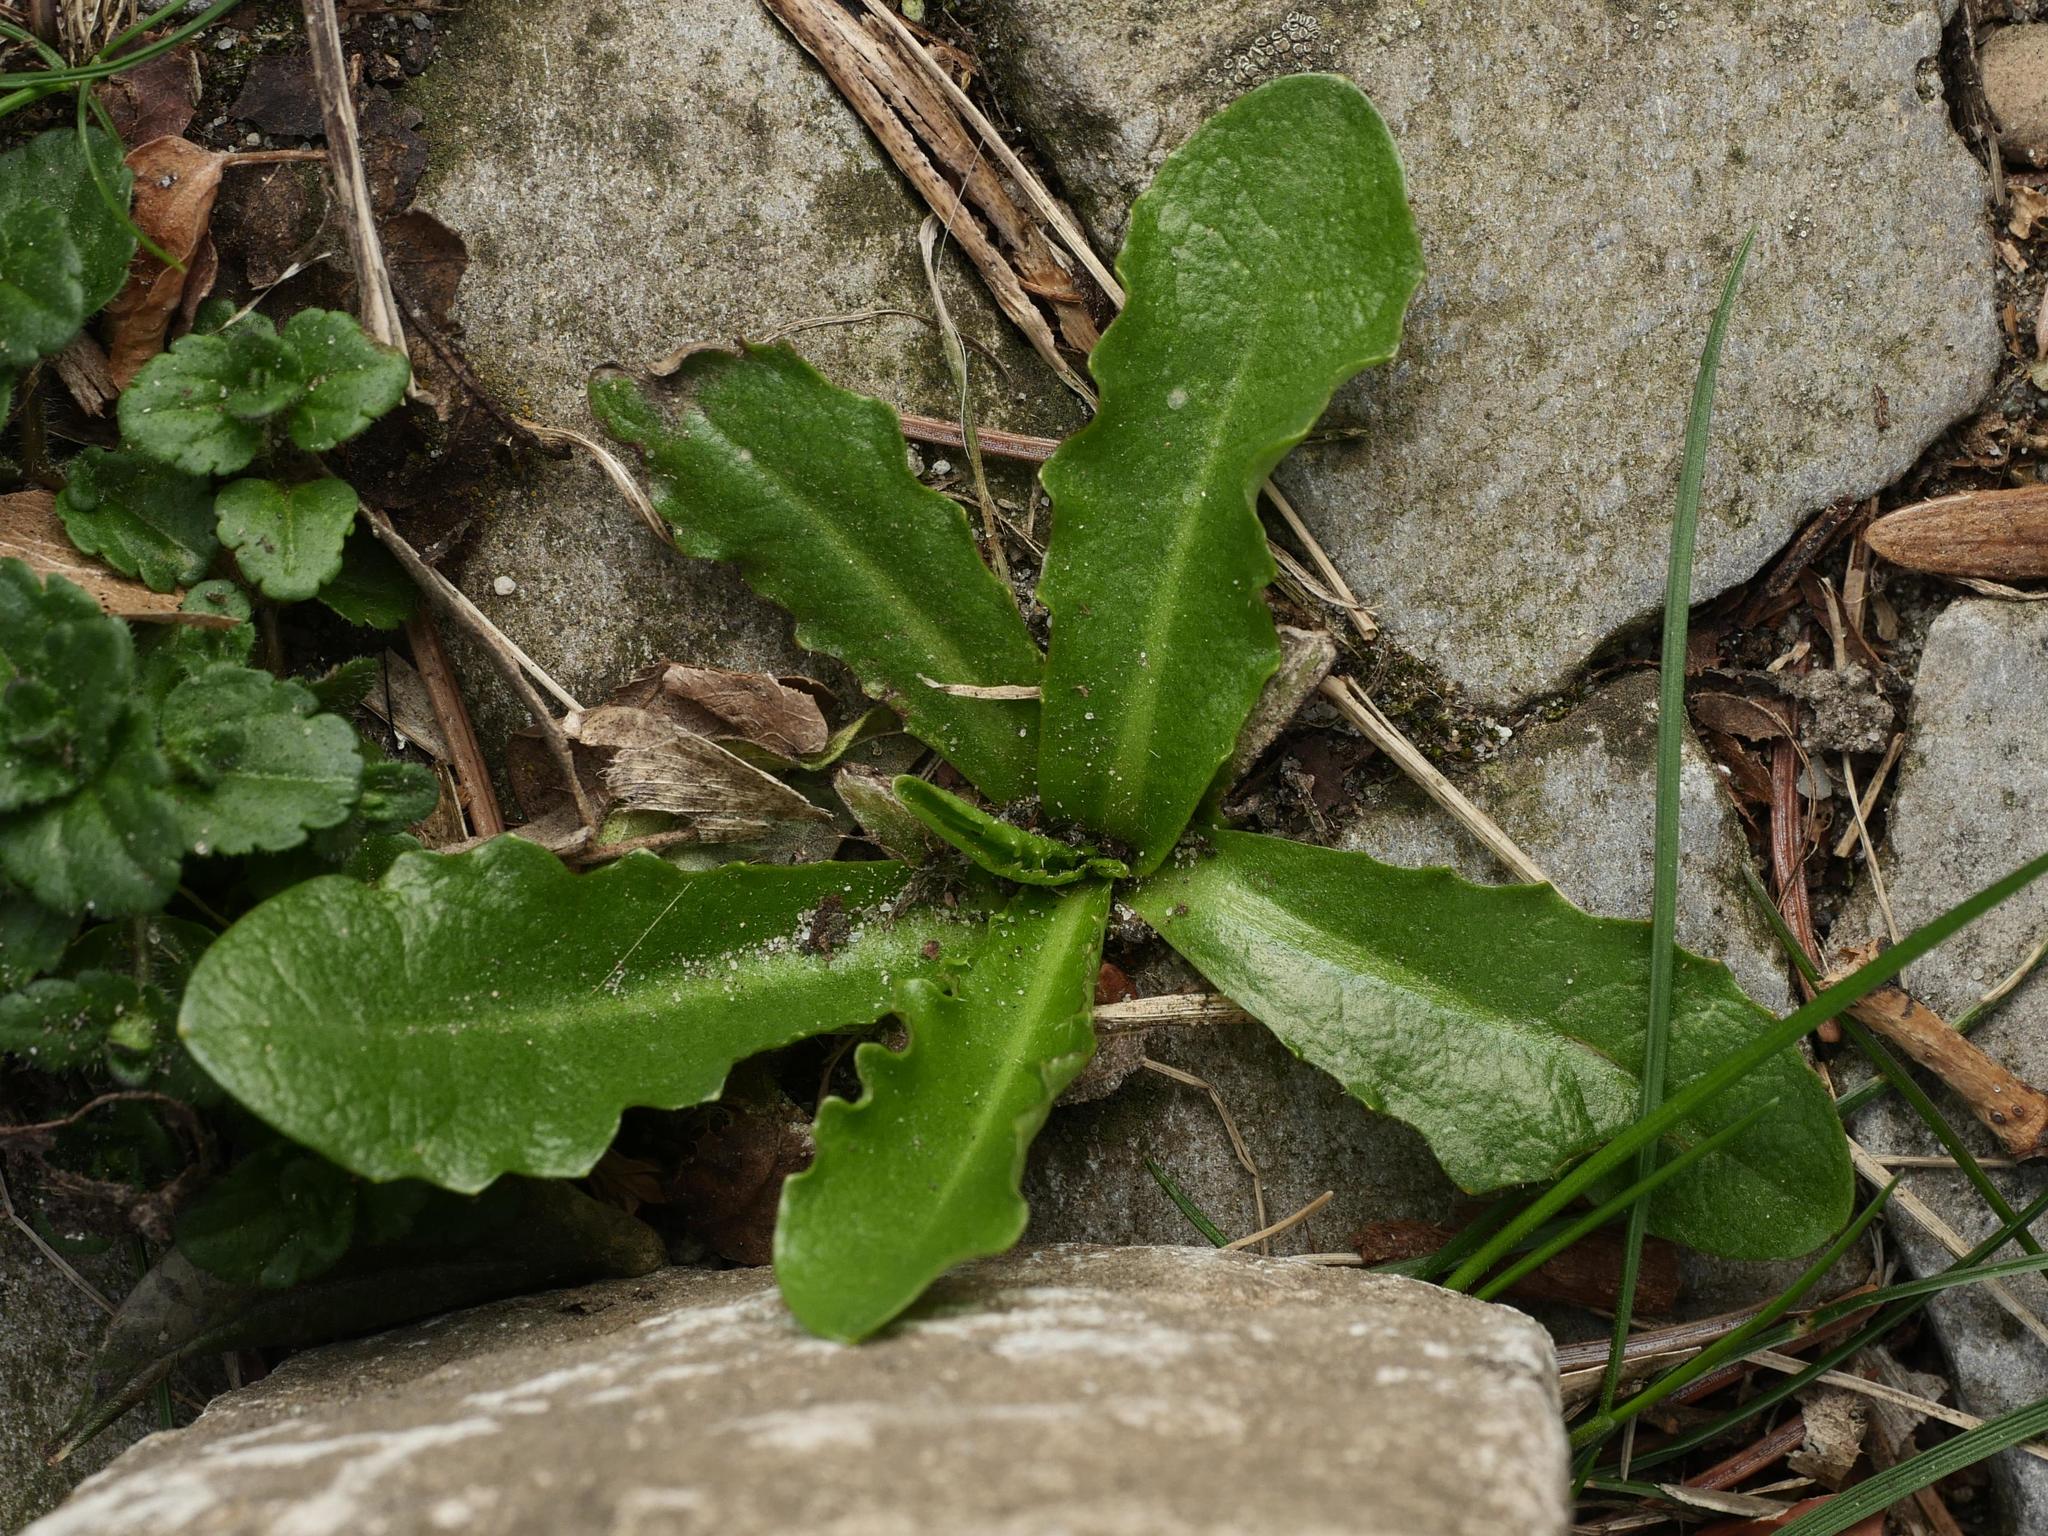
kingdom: Plantae
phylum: Tracheophyta
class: Magnoliopsida
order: Asterales
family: Asteraceae
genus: Hypochaeris
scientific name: Hypochaeris radicata
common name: Flatweed
